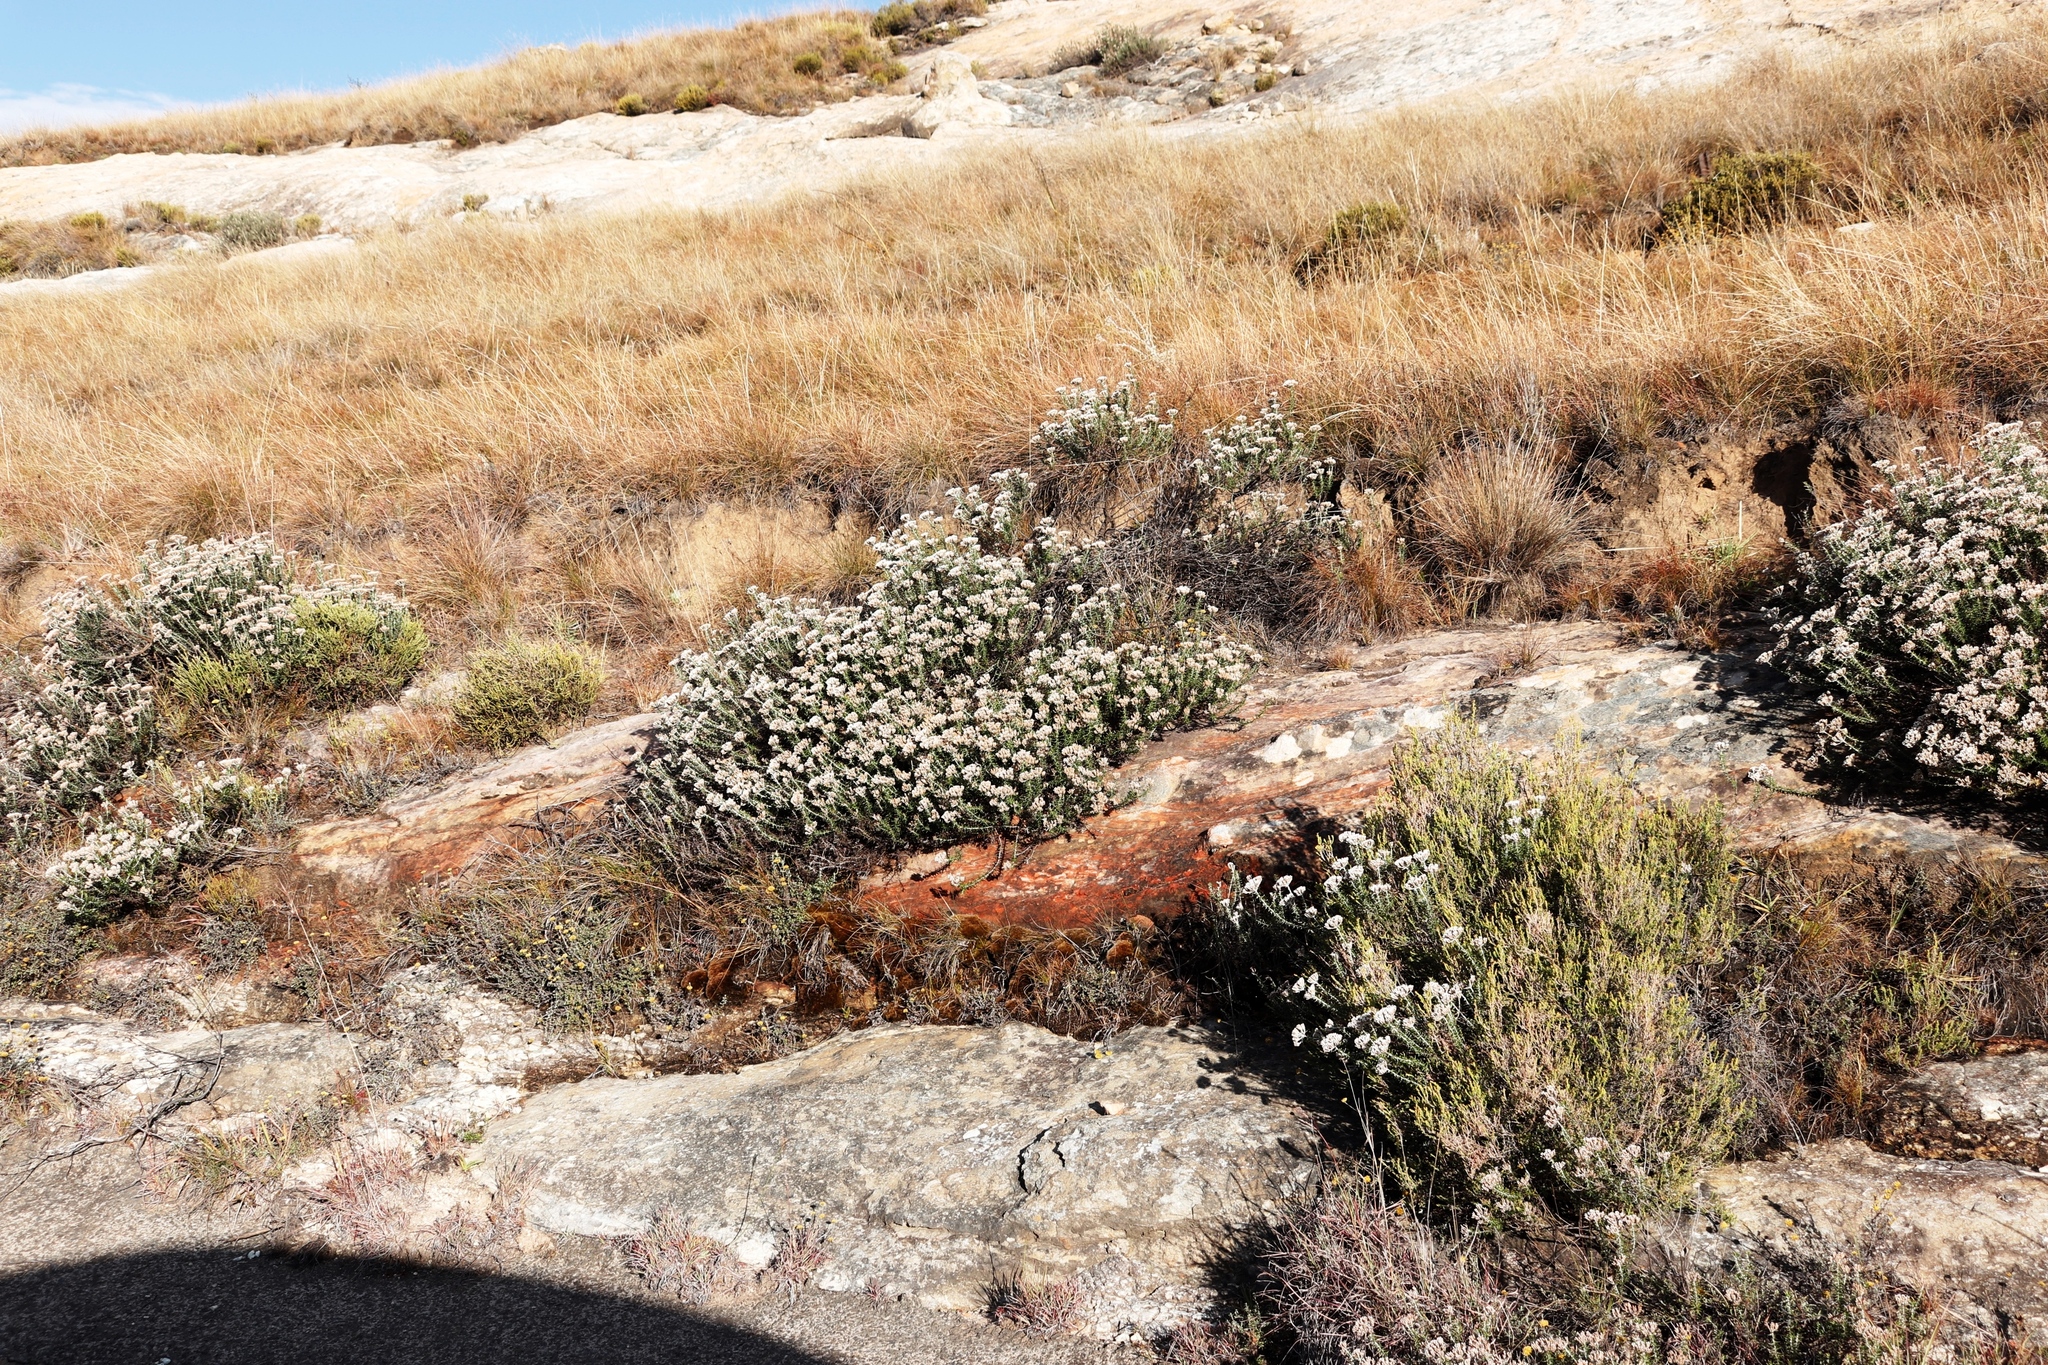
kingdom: Plantae
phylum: Tracheophyta
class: Magnoliopsida
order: Asterales
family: Asteraceae
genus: Metalasia
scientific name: Metalasia densa
